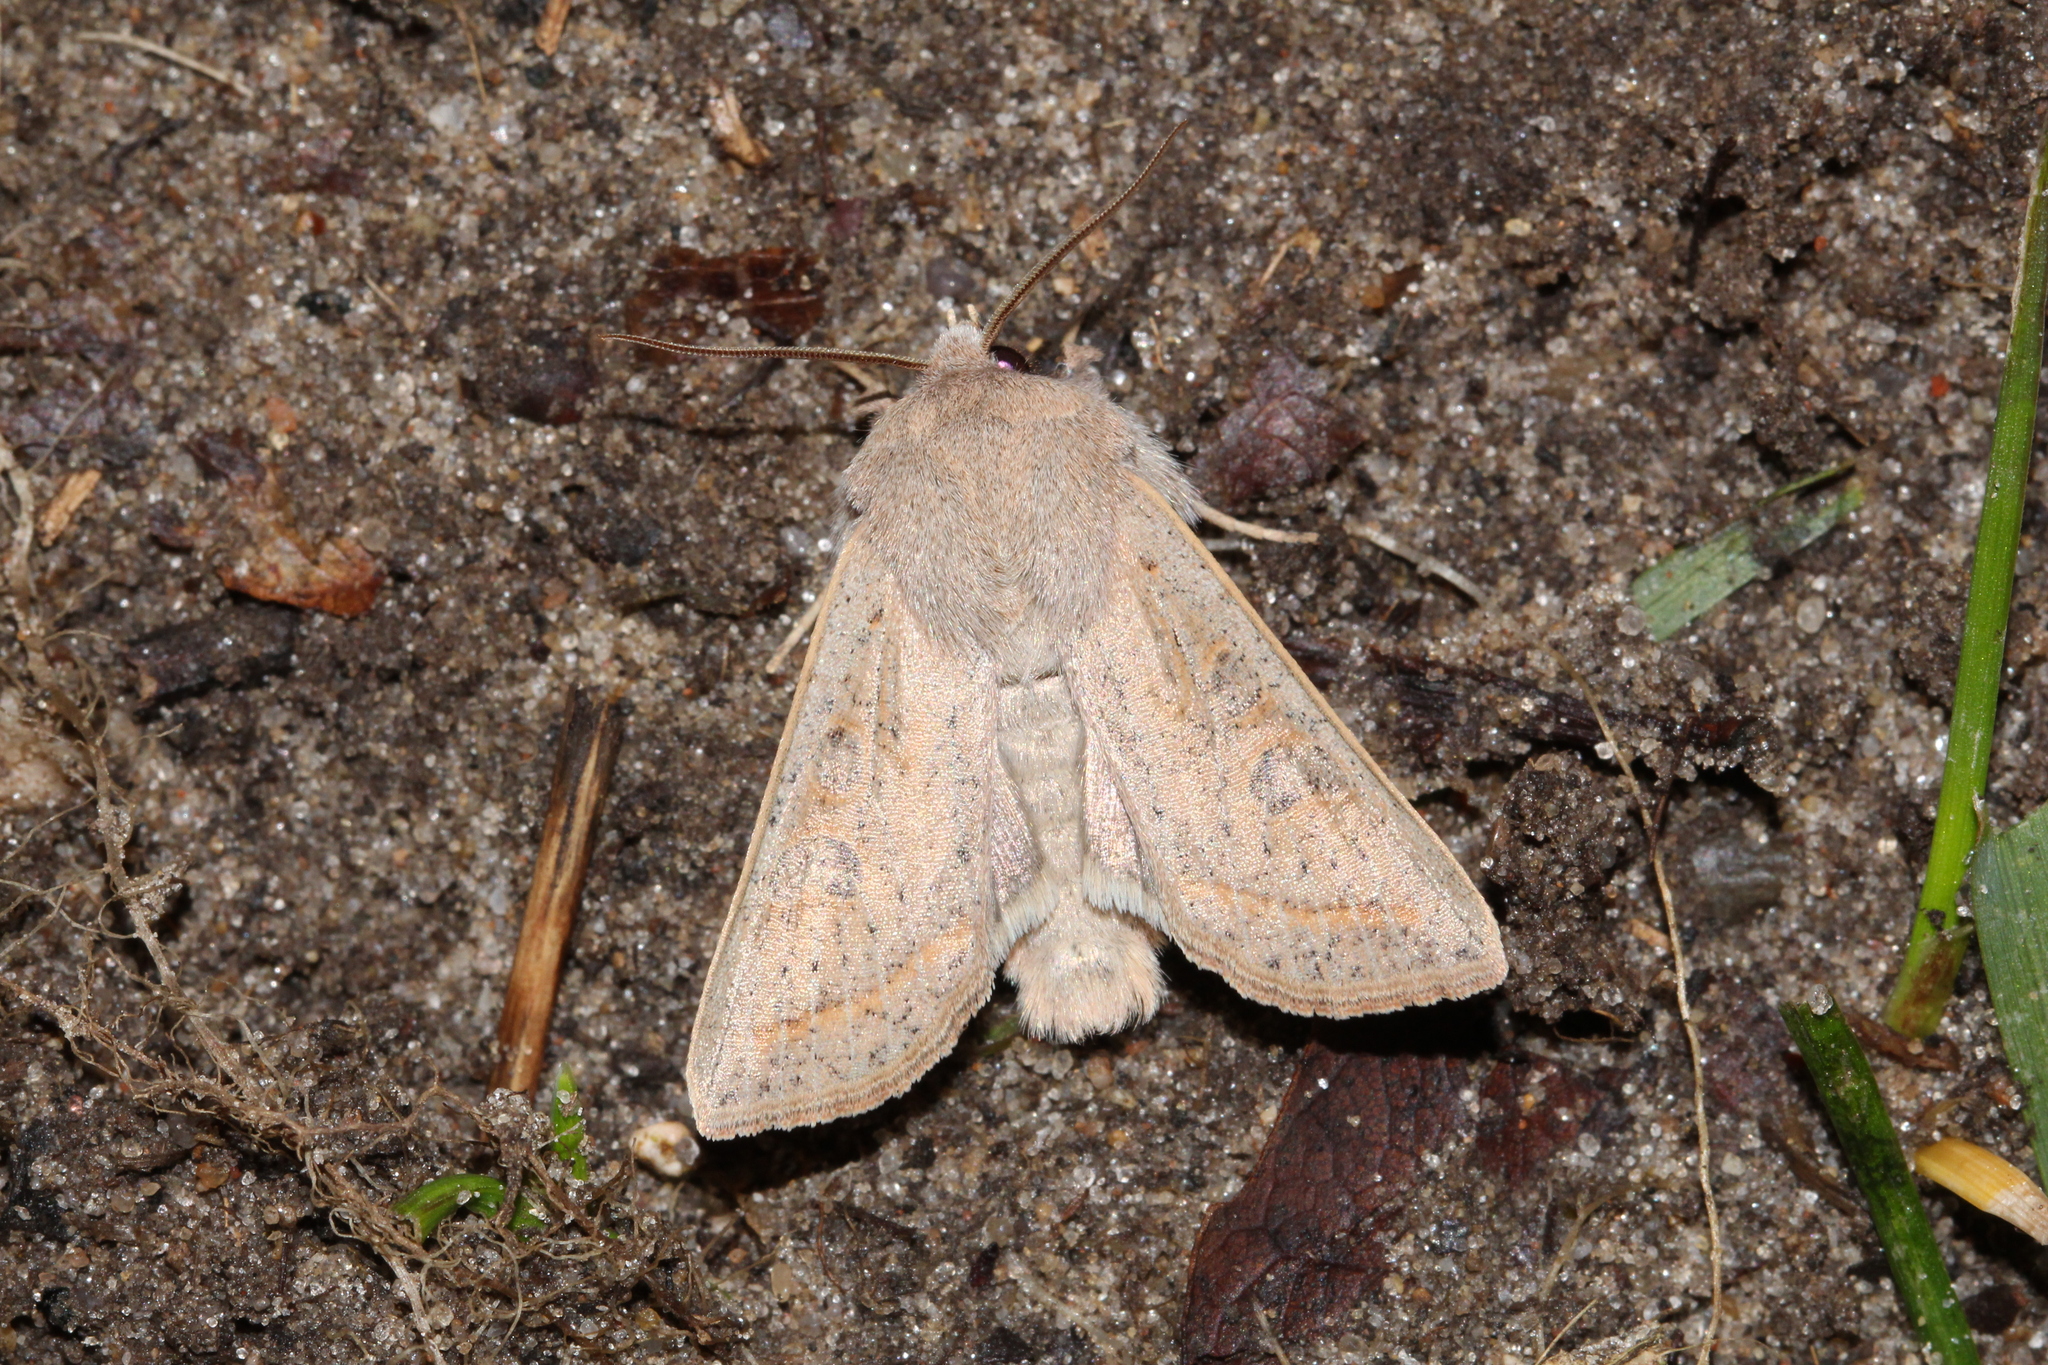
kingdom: Animalia
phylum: Arthropoda
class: Insecta
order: Lepidoptera
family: Noctuidae
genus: Orthosia
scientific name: Orthosia gracilis
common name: Powdered quaker
